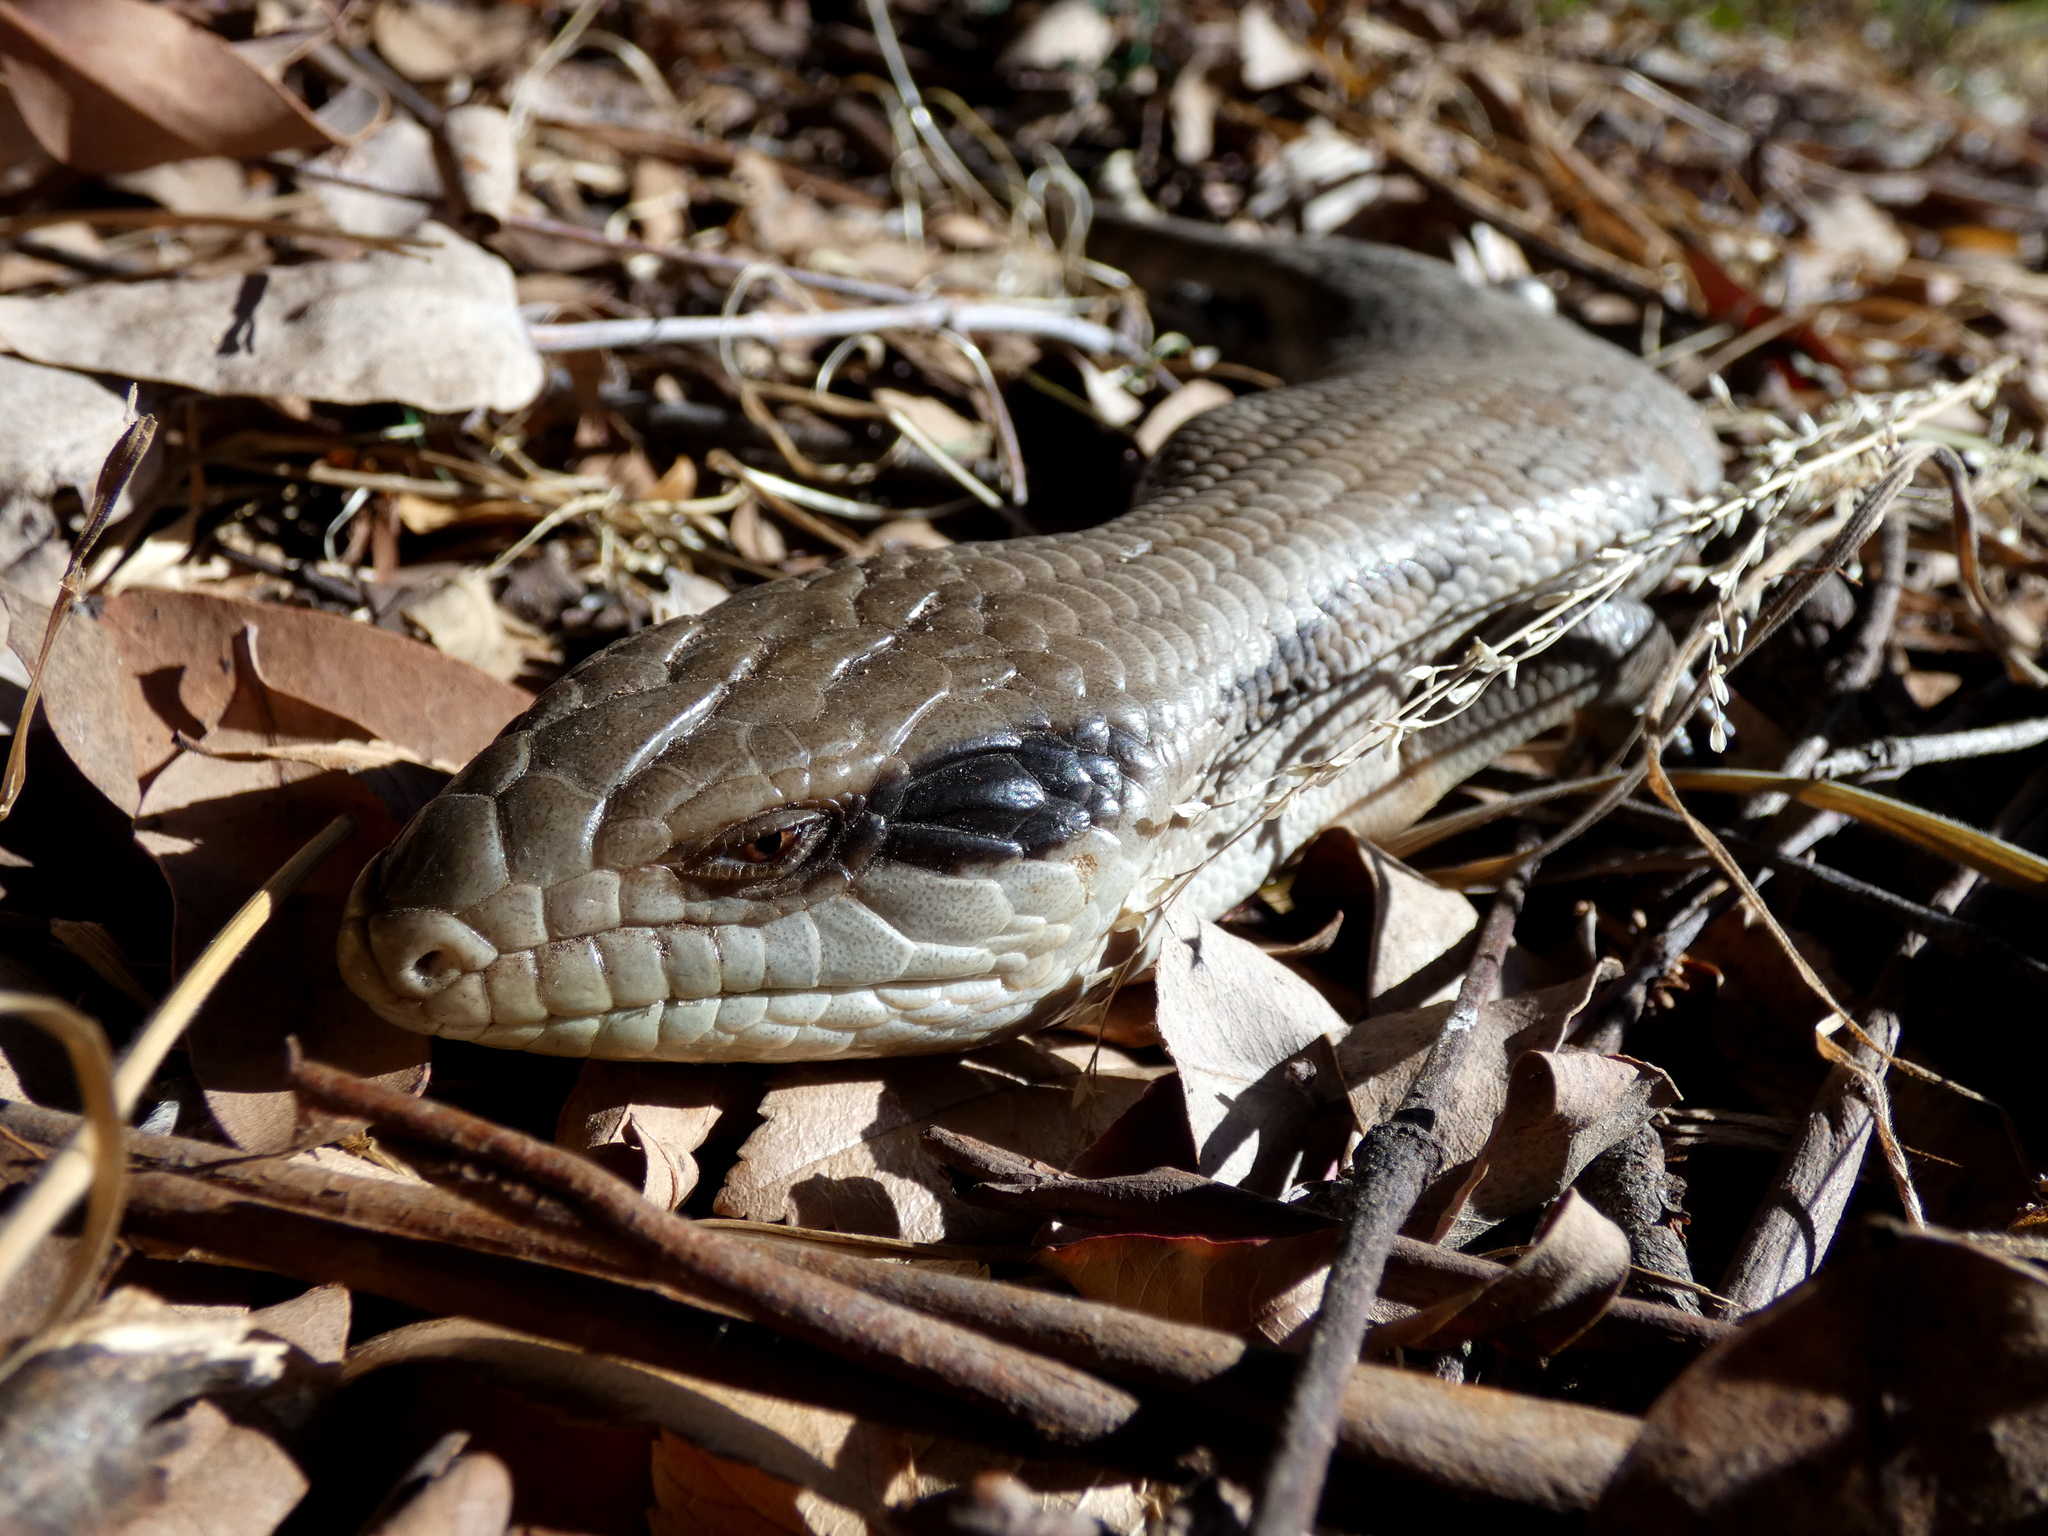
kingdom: Animalia
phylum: Chordata
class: Squamata
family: Scincidae
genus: Tiliqua
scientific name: Tiliqua scincoides
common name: Common bluetongue
